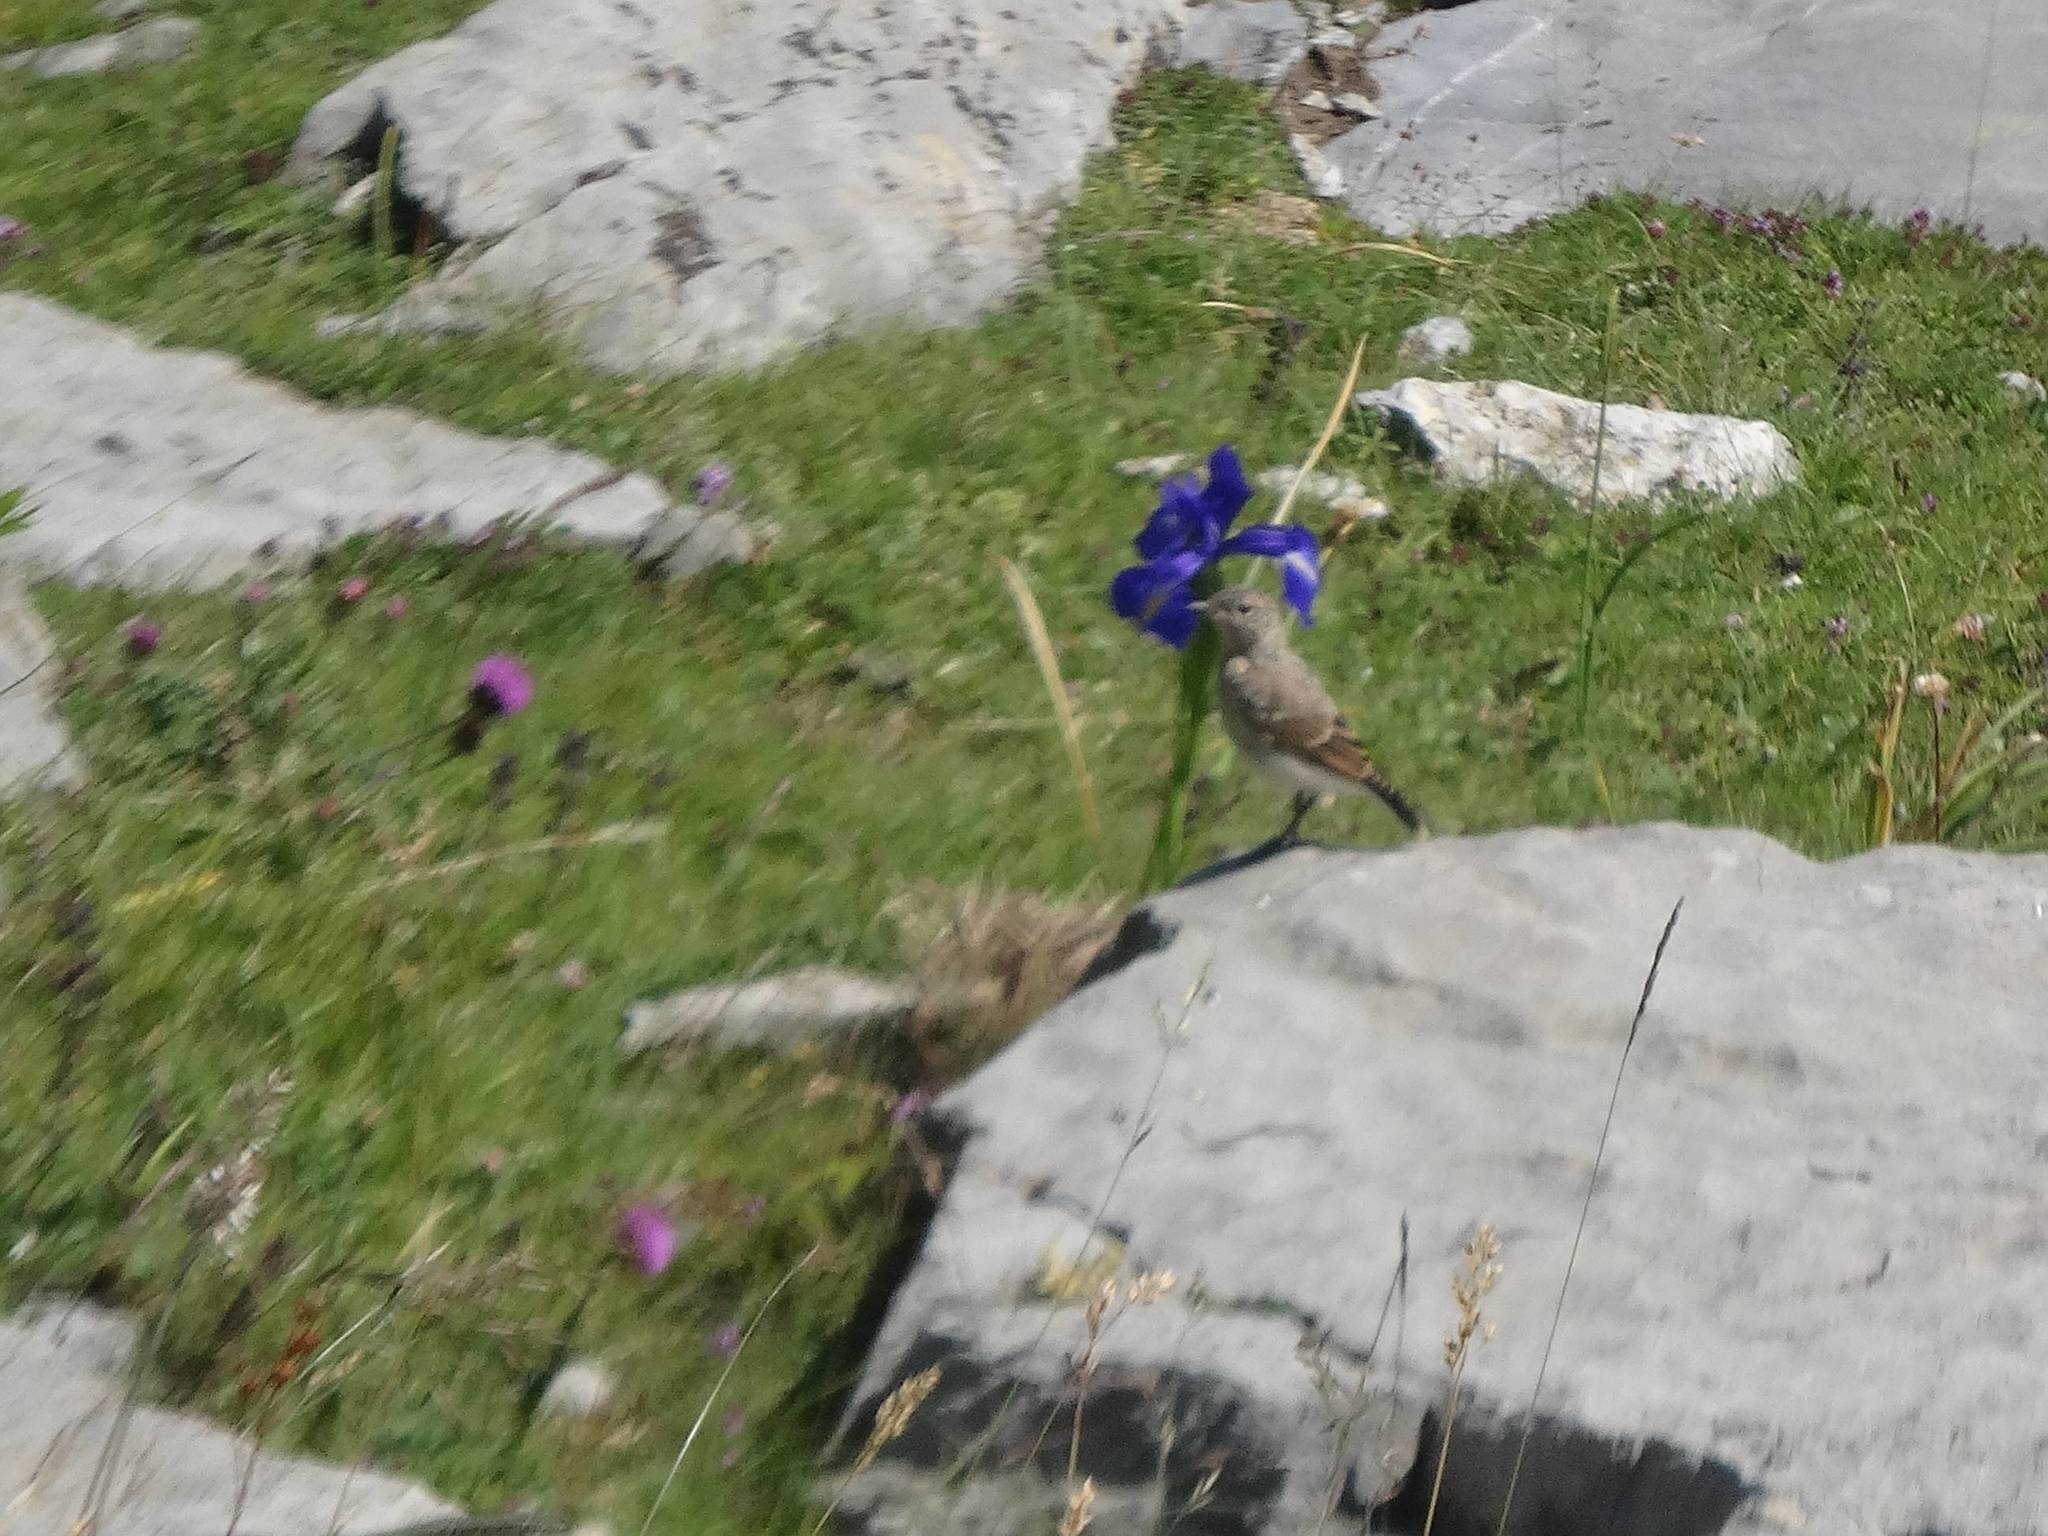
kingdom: Animalia
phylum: Chordata
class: Aves
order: Passeriformes
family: Muscicapidae
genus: Oenanthe
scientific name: Oenanthe oenanthe
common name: Northern wheatear
